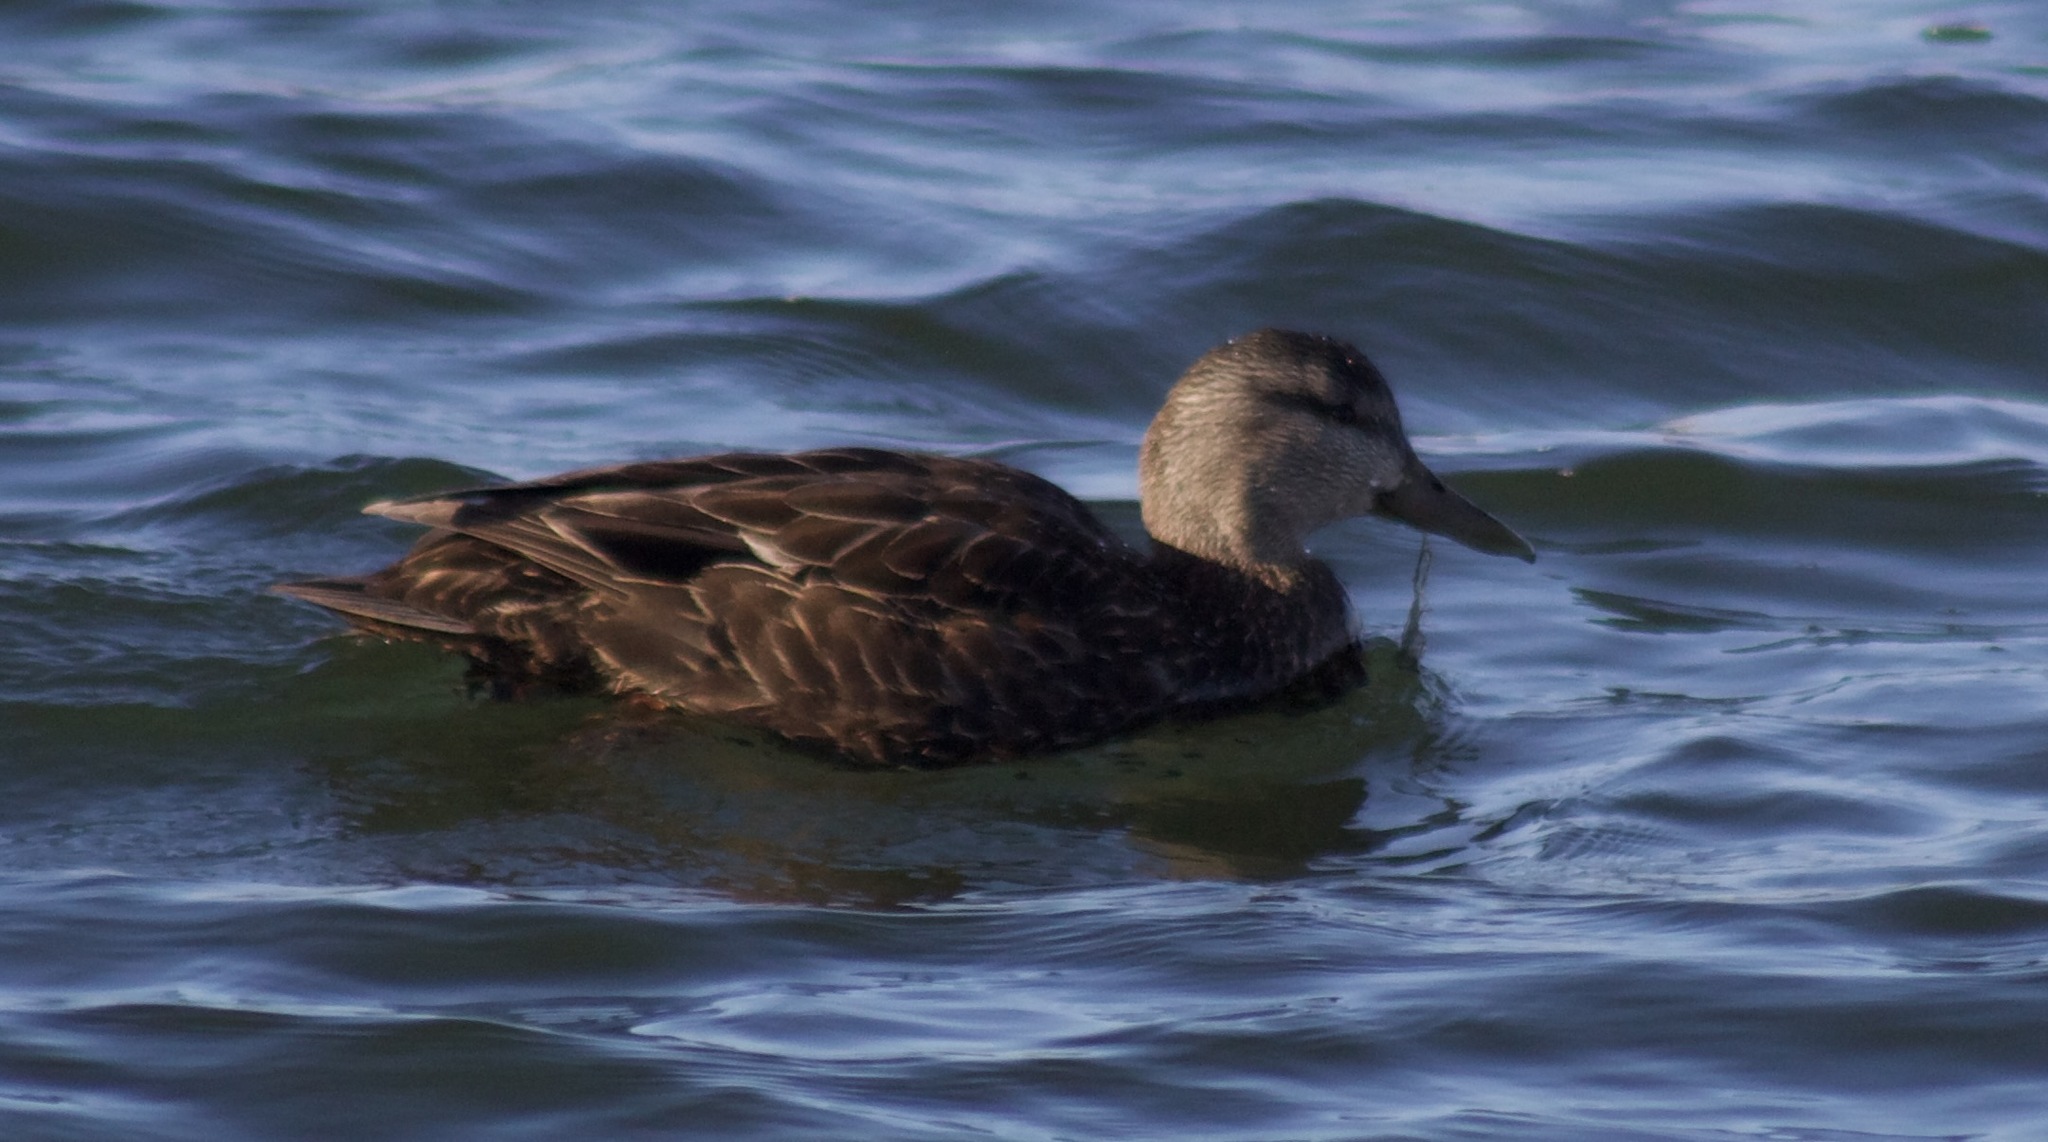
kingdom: Animalia
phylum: Chordata
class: Aves
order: Anseriformes
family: Anatidae
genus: Anas
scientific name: Anas platyrhynchos
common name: Mallard
